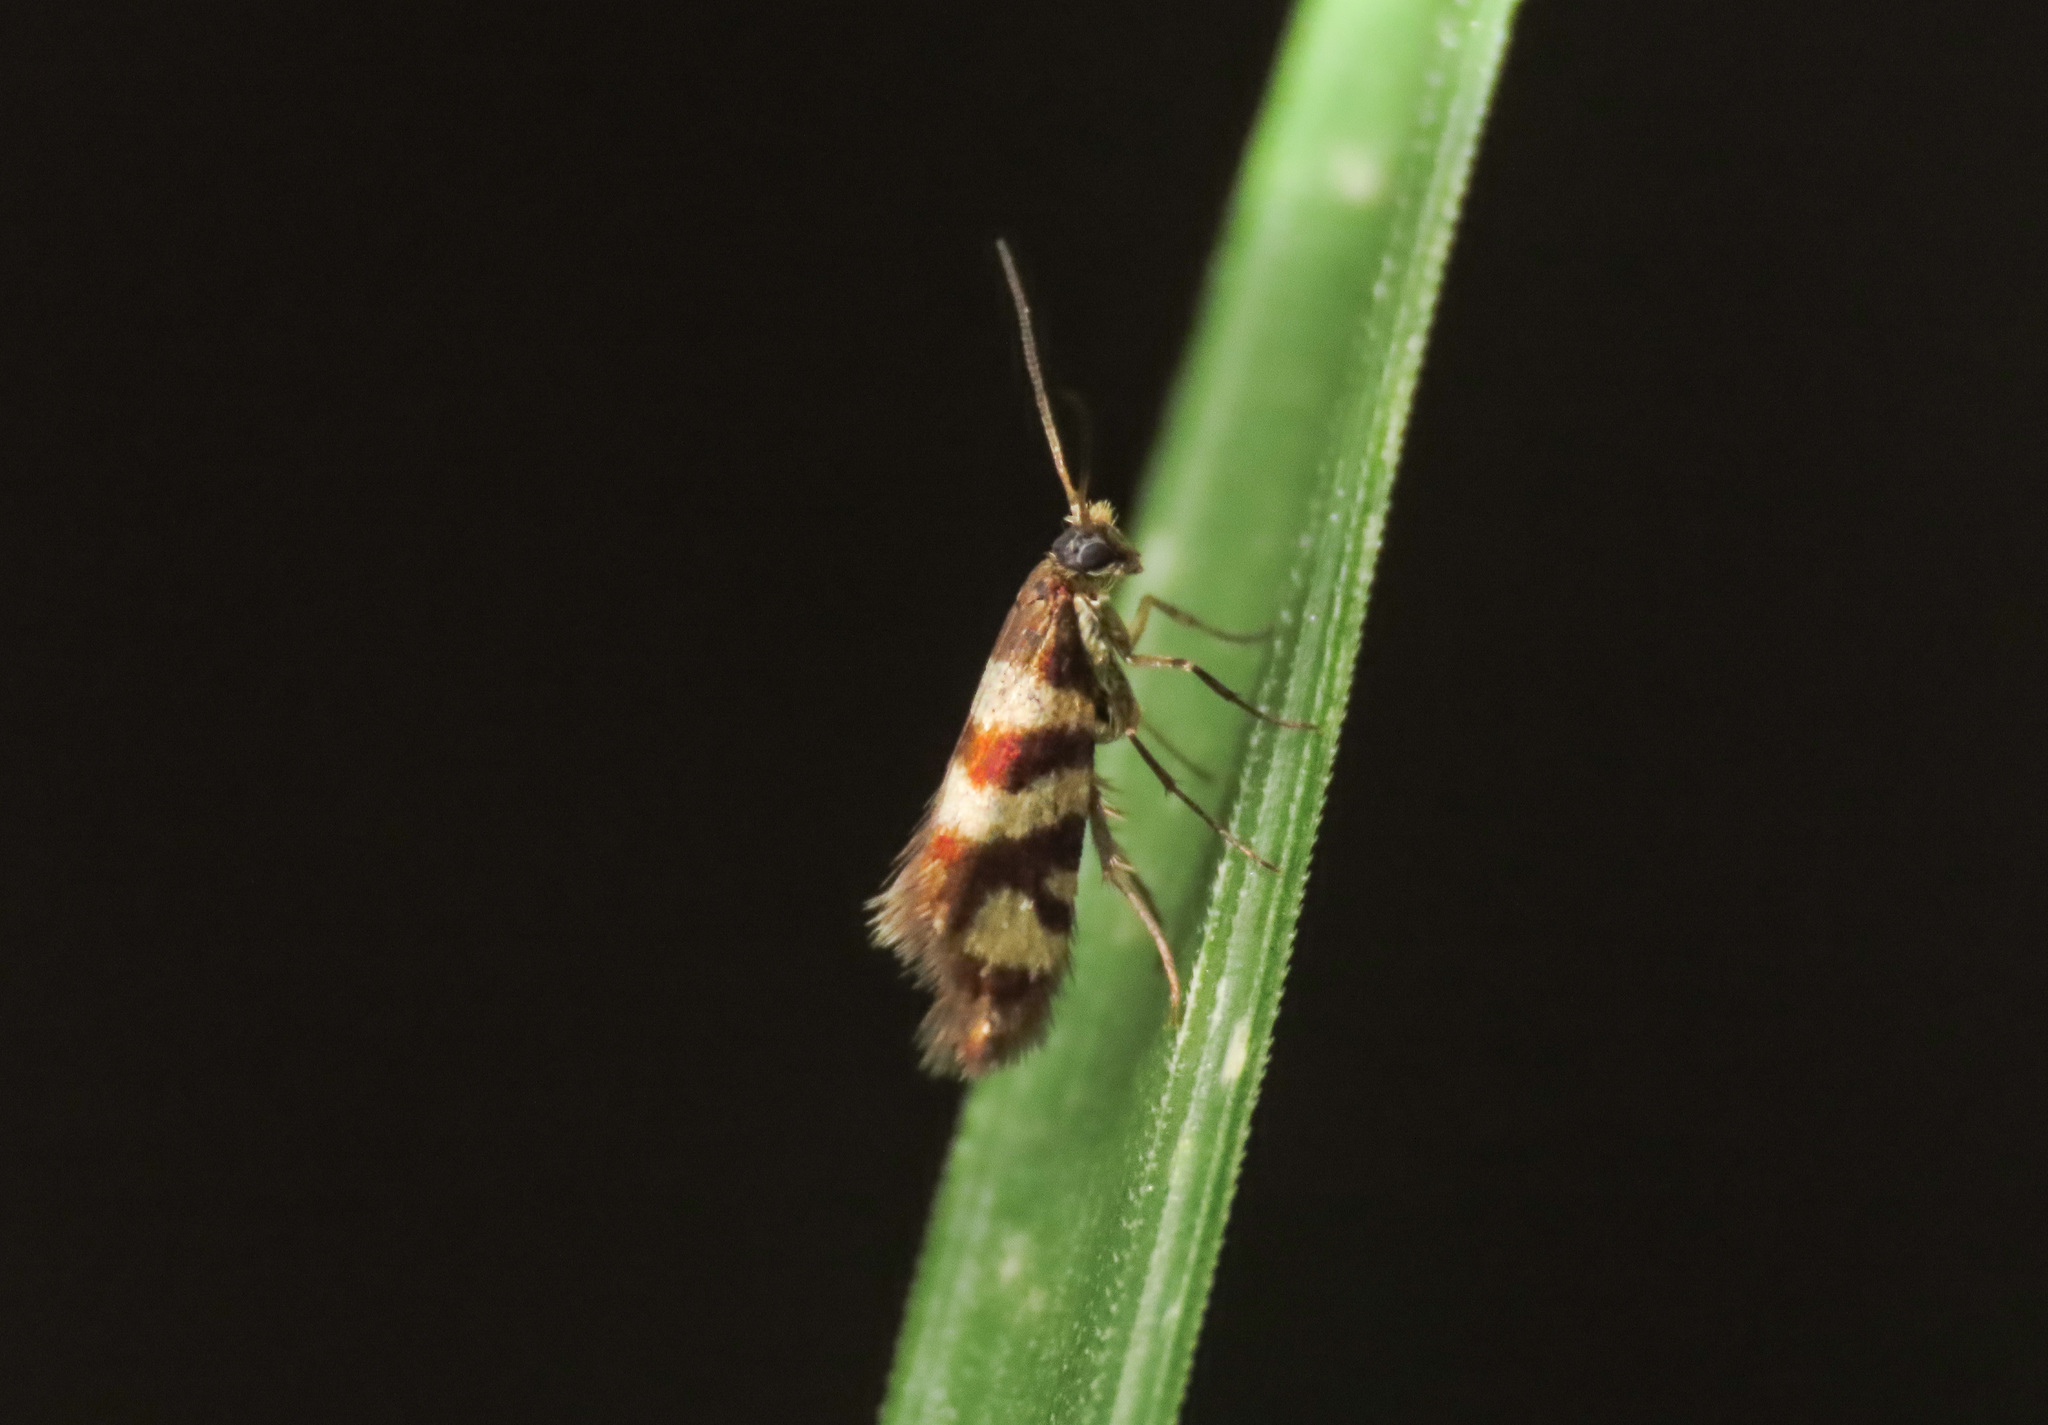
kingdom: Animalia
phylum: Arthropoda
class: Insecta
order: Lepidoptera
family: Micropterigidae
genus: Micropterix
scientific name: Micropterix rothenbachii
